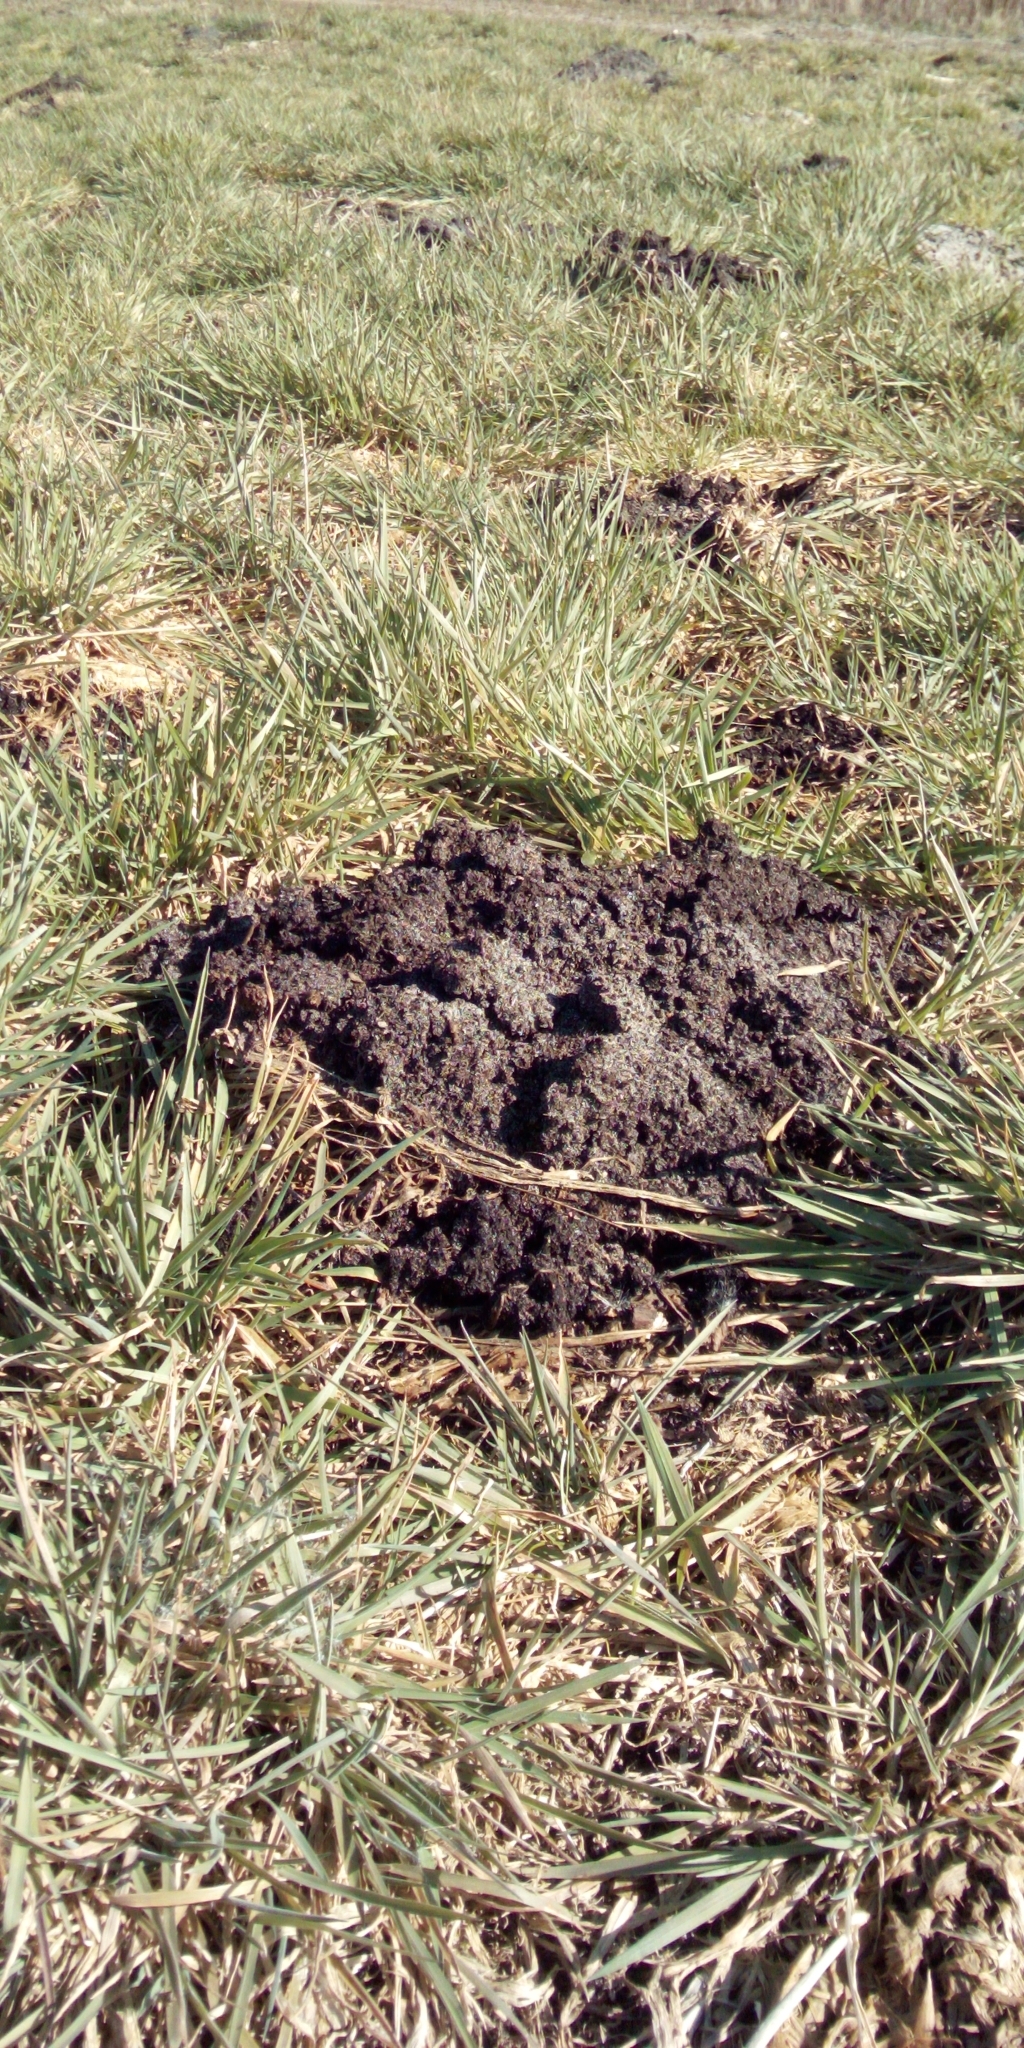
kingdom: Animalia
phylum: Chordata
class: Mammalia
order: Soricomorpha
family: Talpidae
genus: Talpa
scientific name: Talpa europaea
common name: European mole
